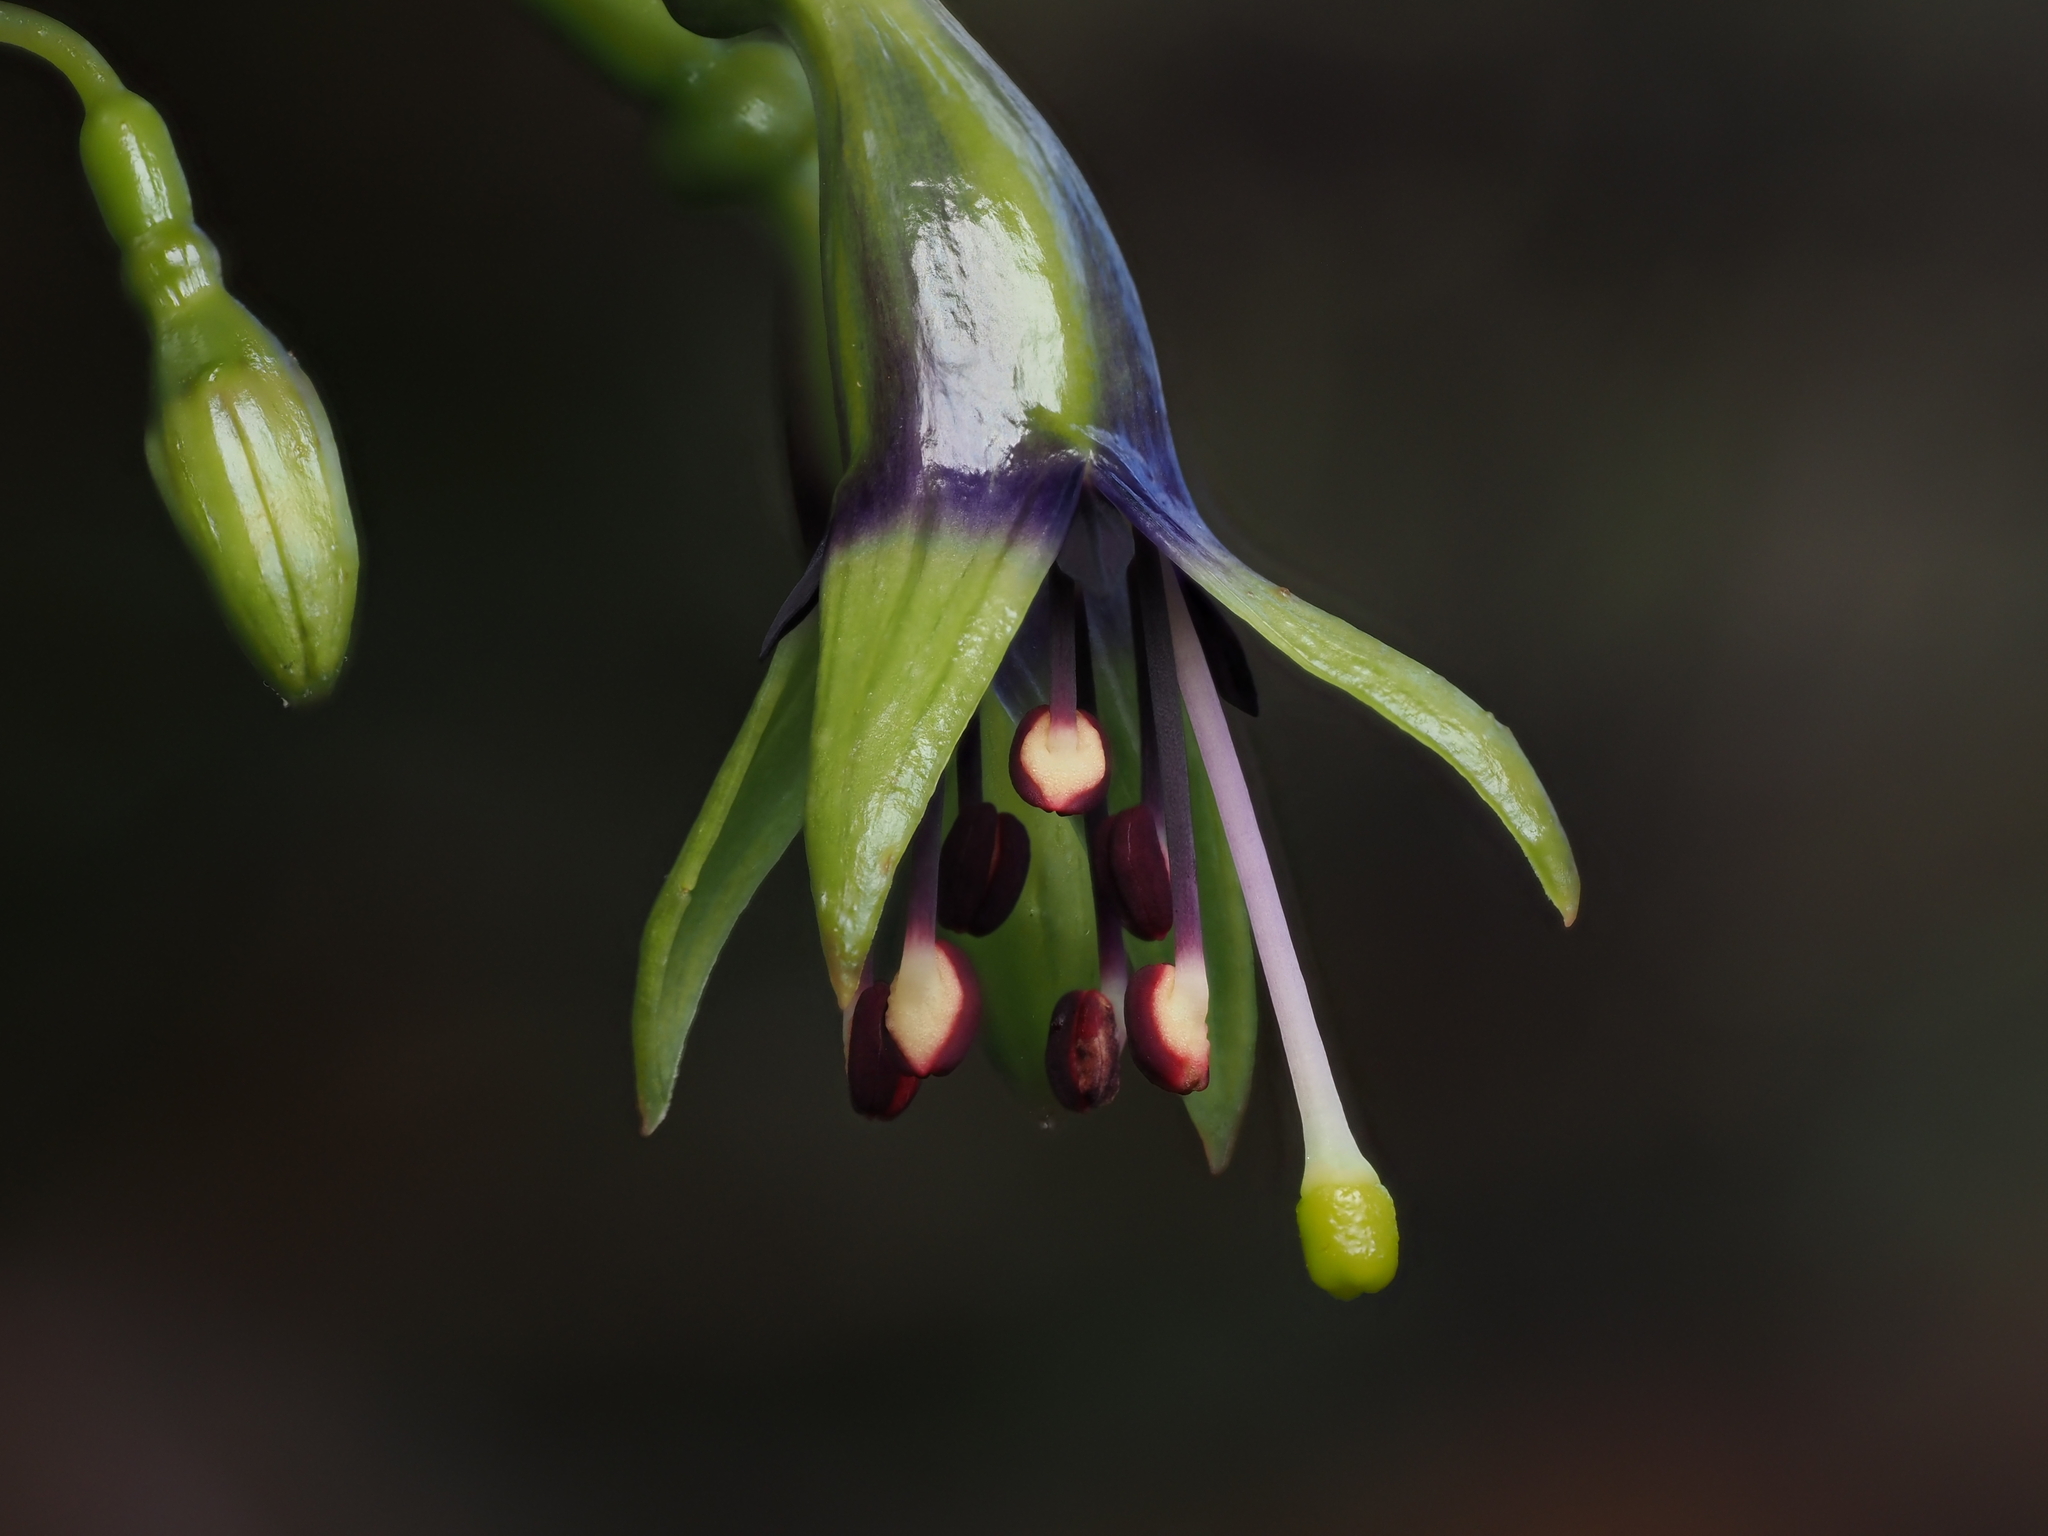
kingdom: Plantae
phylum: Tracheophyta
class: Magnoliopsida
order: Myrtales
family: Onagraceae
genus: Fuchsia
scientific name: Fuchsia excorticata
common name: Tree fuchsia
